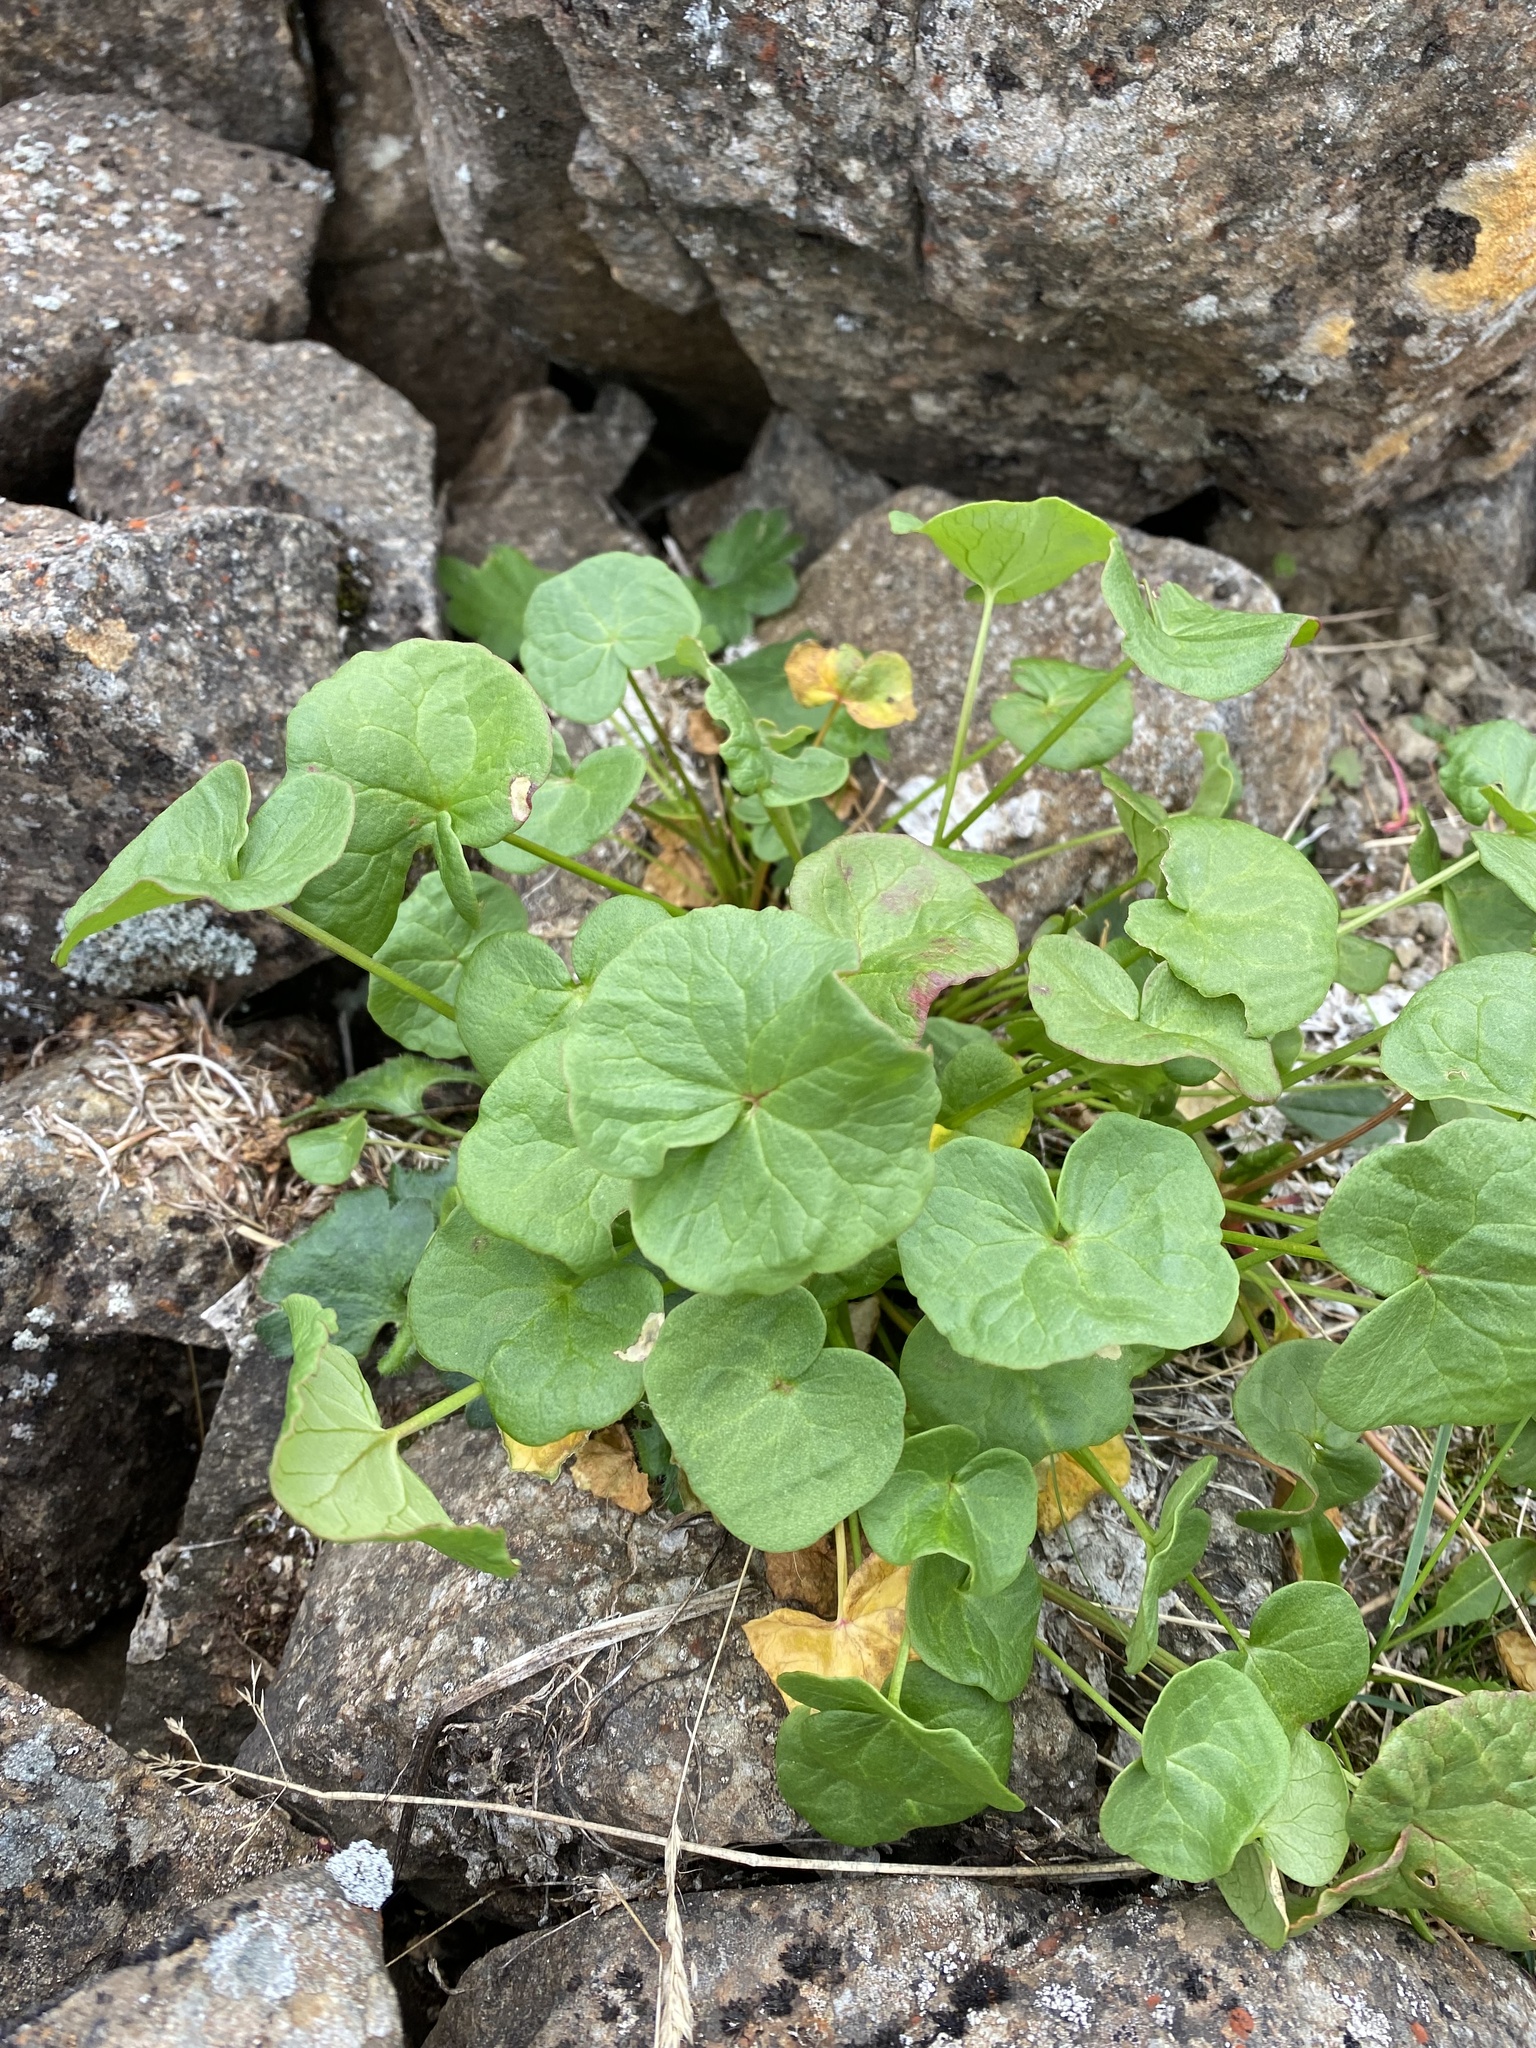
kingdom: Plantae
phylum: Tracheophyta
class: Magnoliopsida
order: Caryophyllales
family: Polygonaceae
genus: Oxyria
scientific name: Oxyria digyna
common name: Alpine mountain-sorrel
